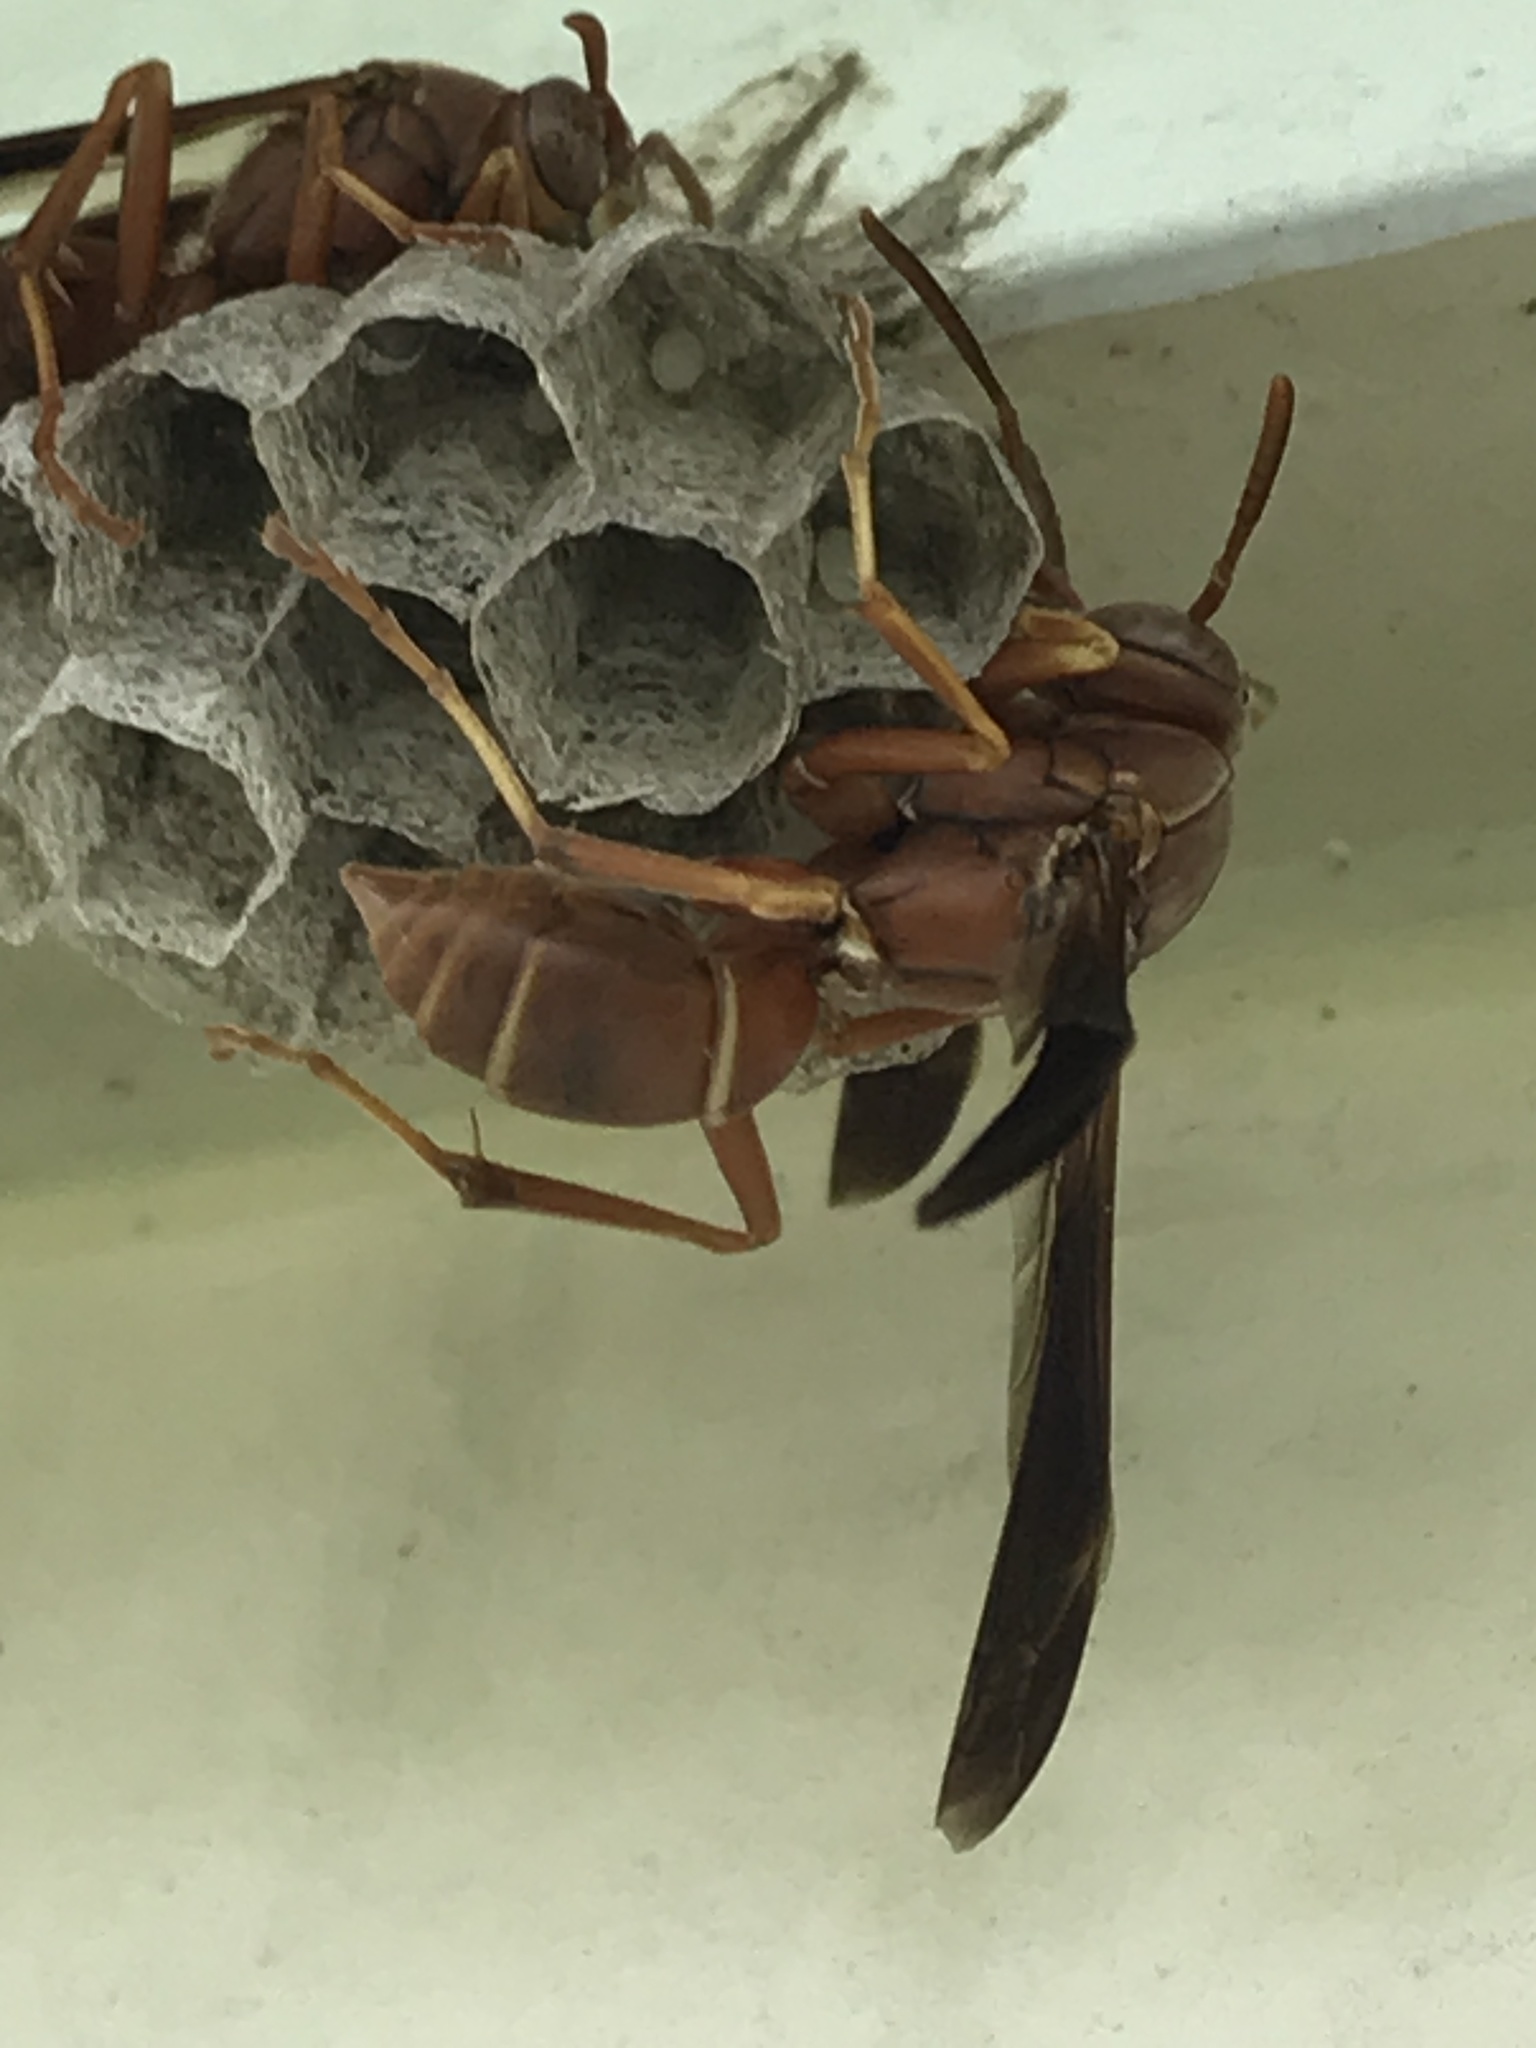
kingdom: Animalia
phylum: Arthropoda
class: Insecta
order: Hymenoptera
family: Eumenidae
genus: Polistes
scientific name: Polistes bellicosus
